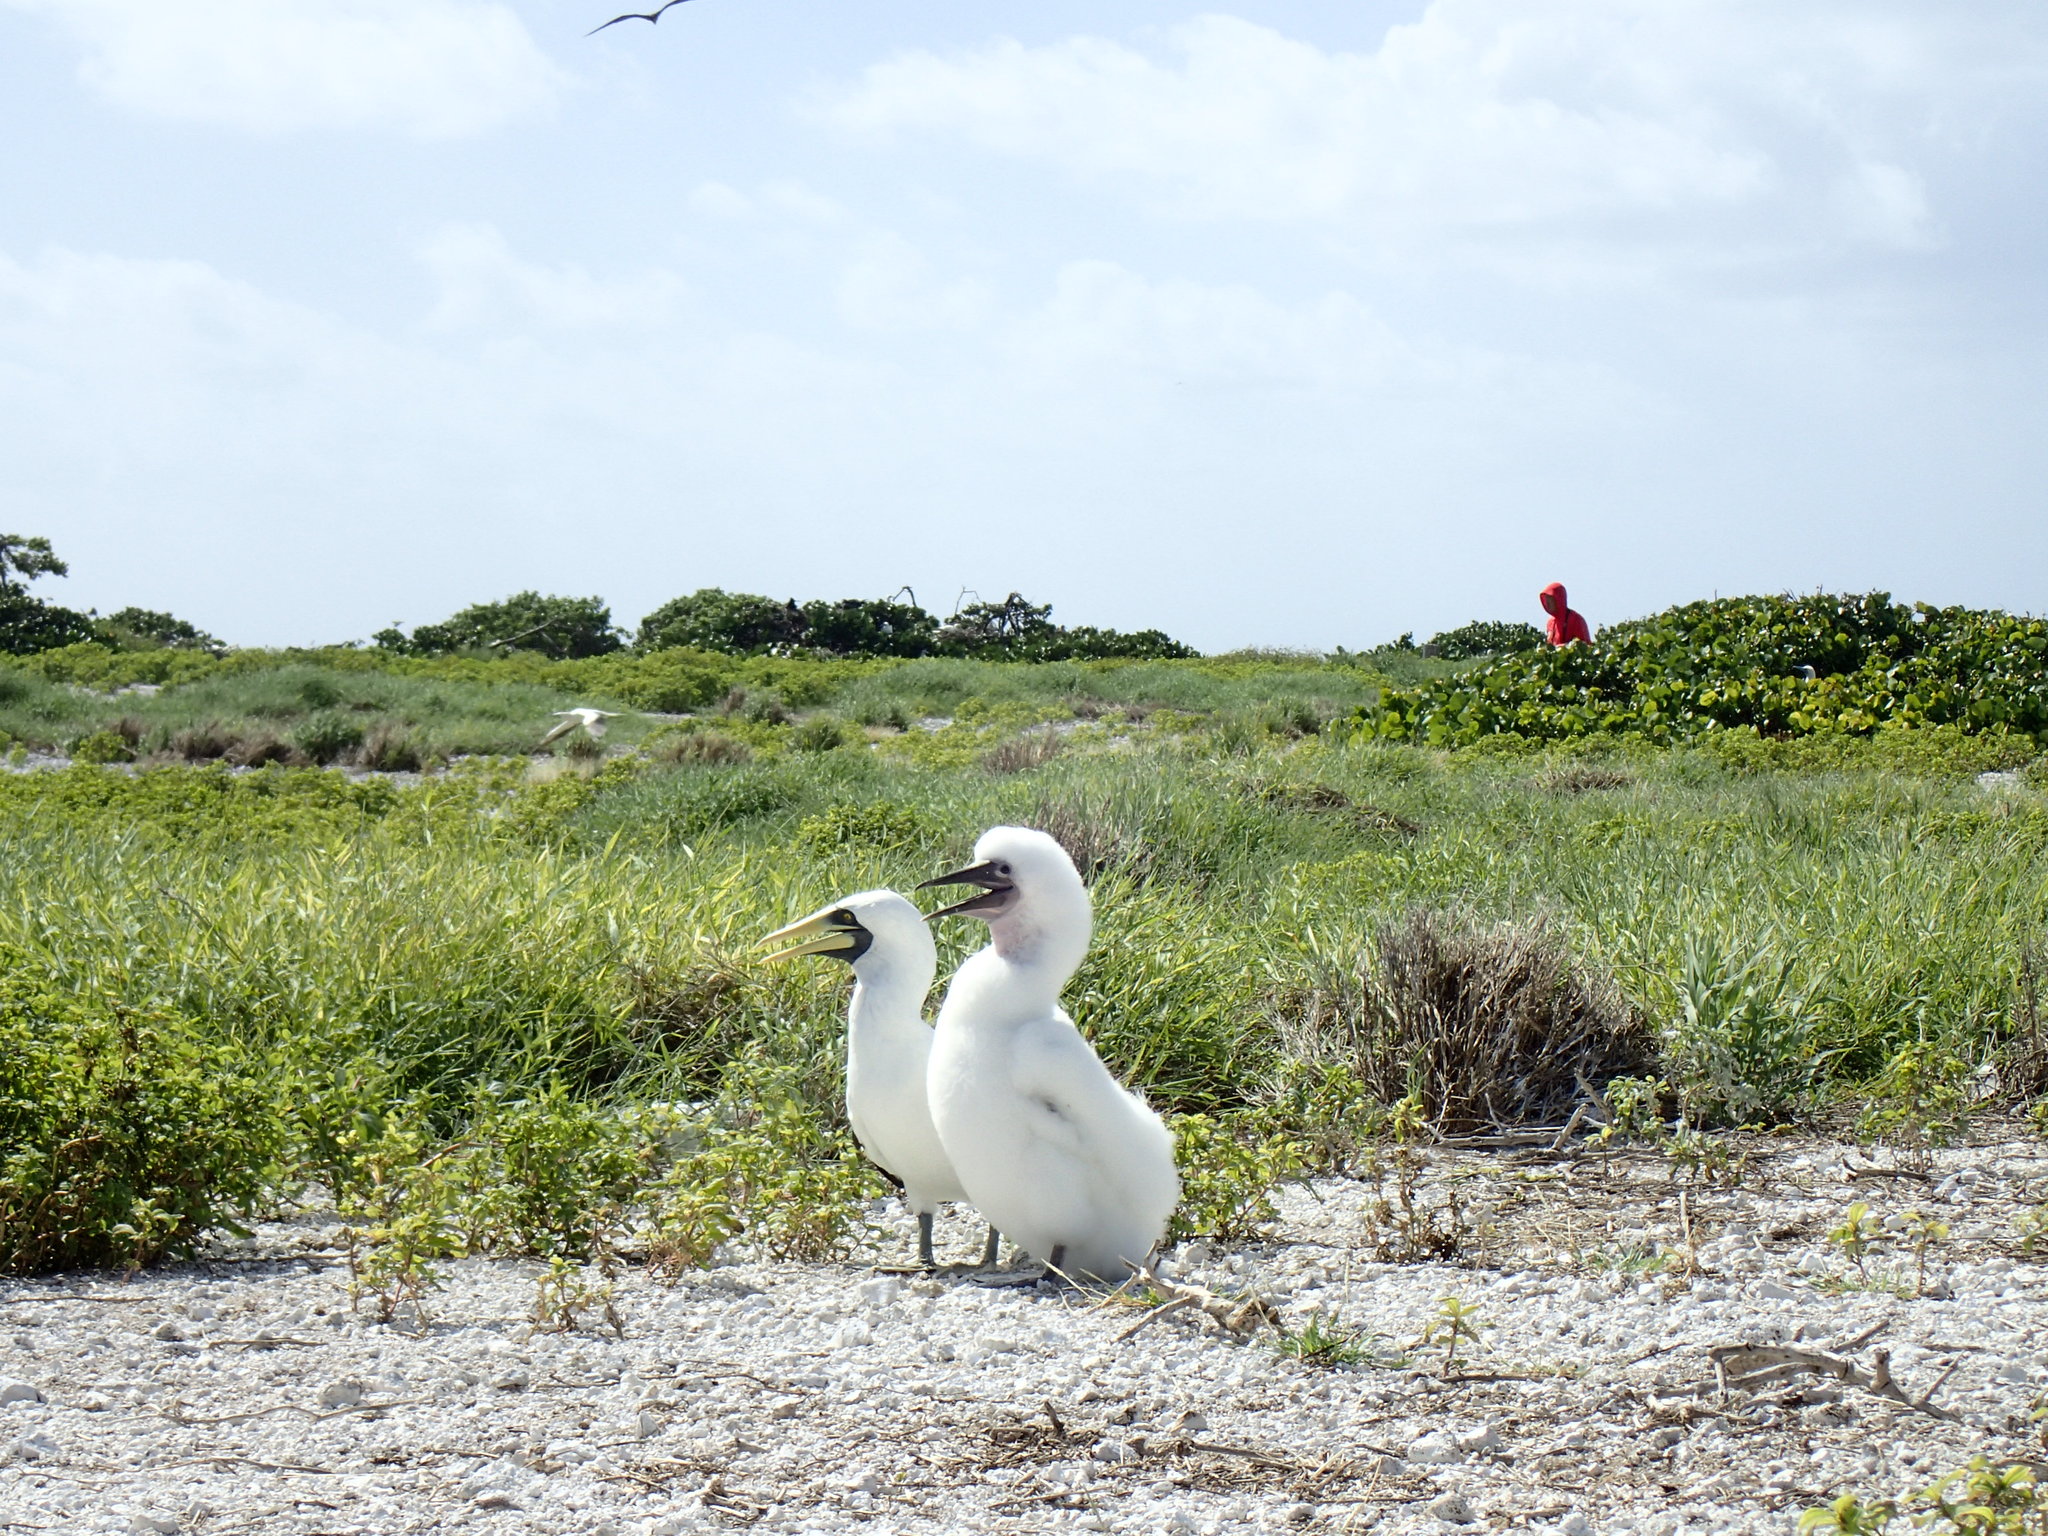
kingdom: Animalia
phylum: Chordata
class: Aves
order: Suliformes
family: Sulidae
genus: Sula
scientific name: Sula dactylatra
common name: Masked booby
